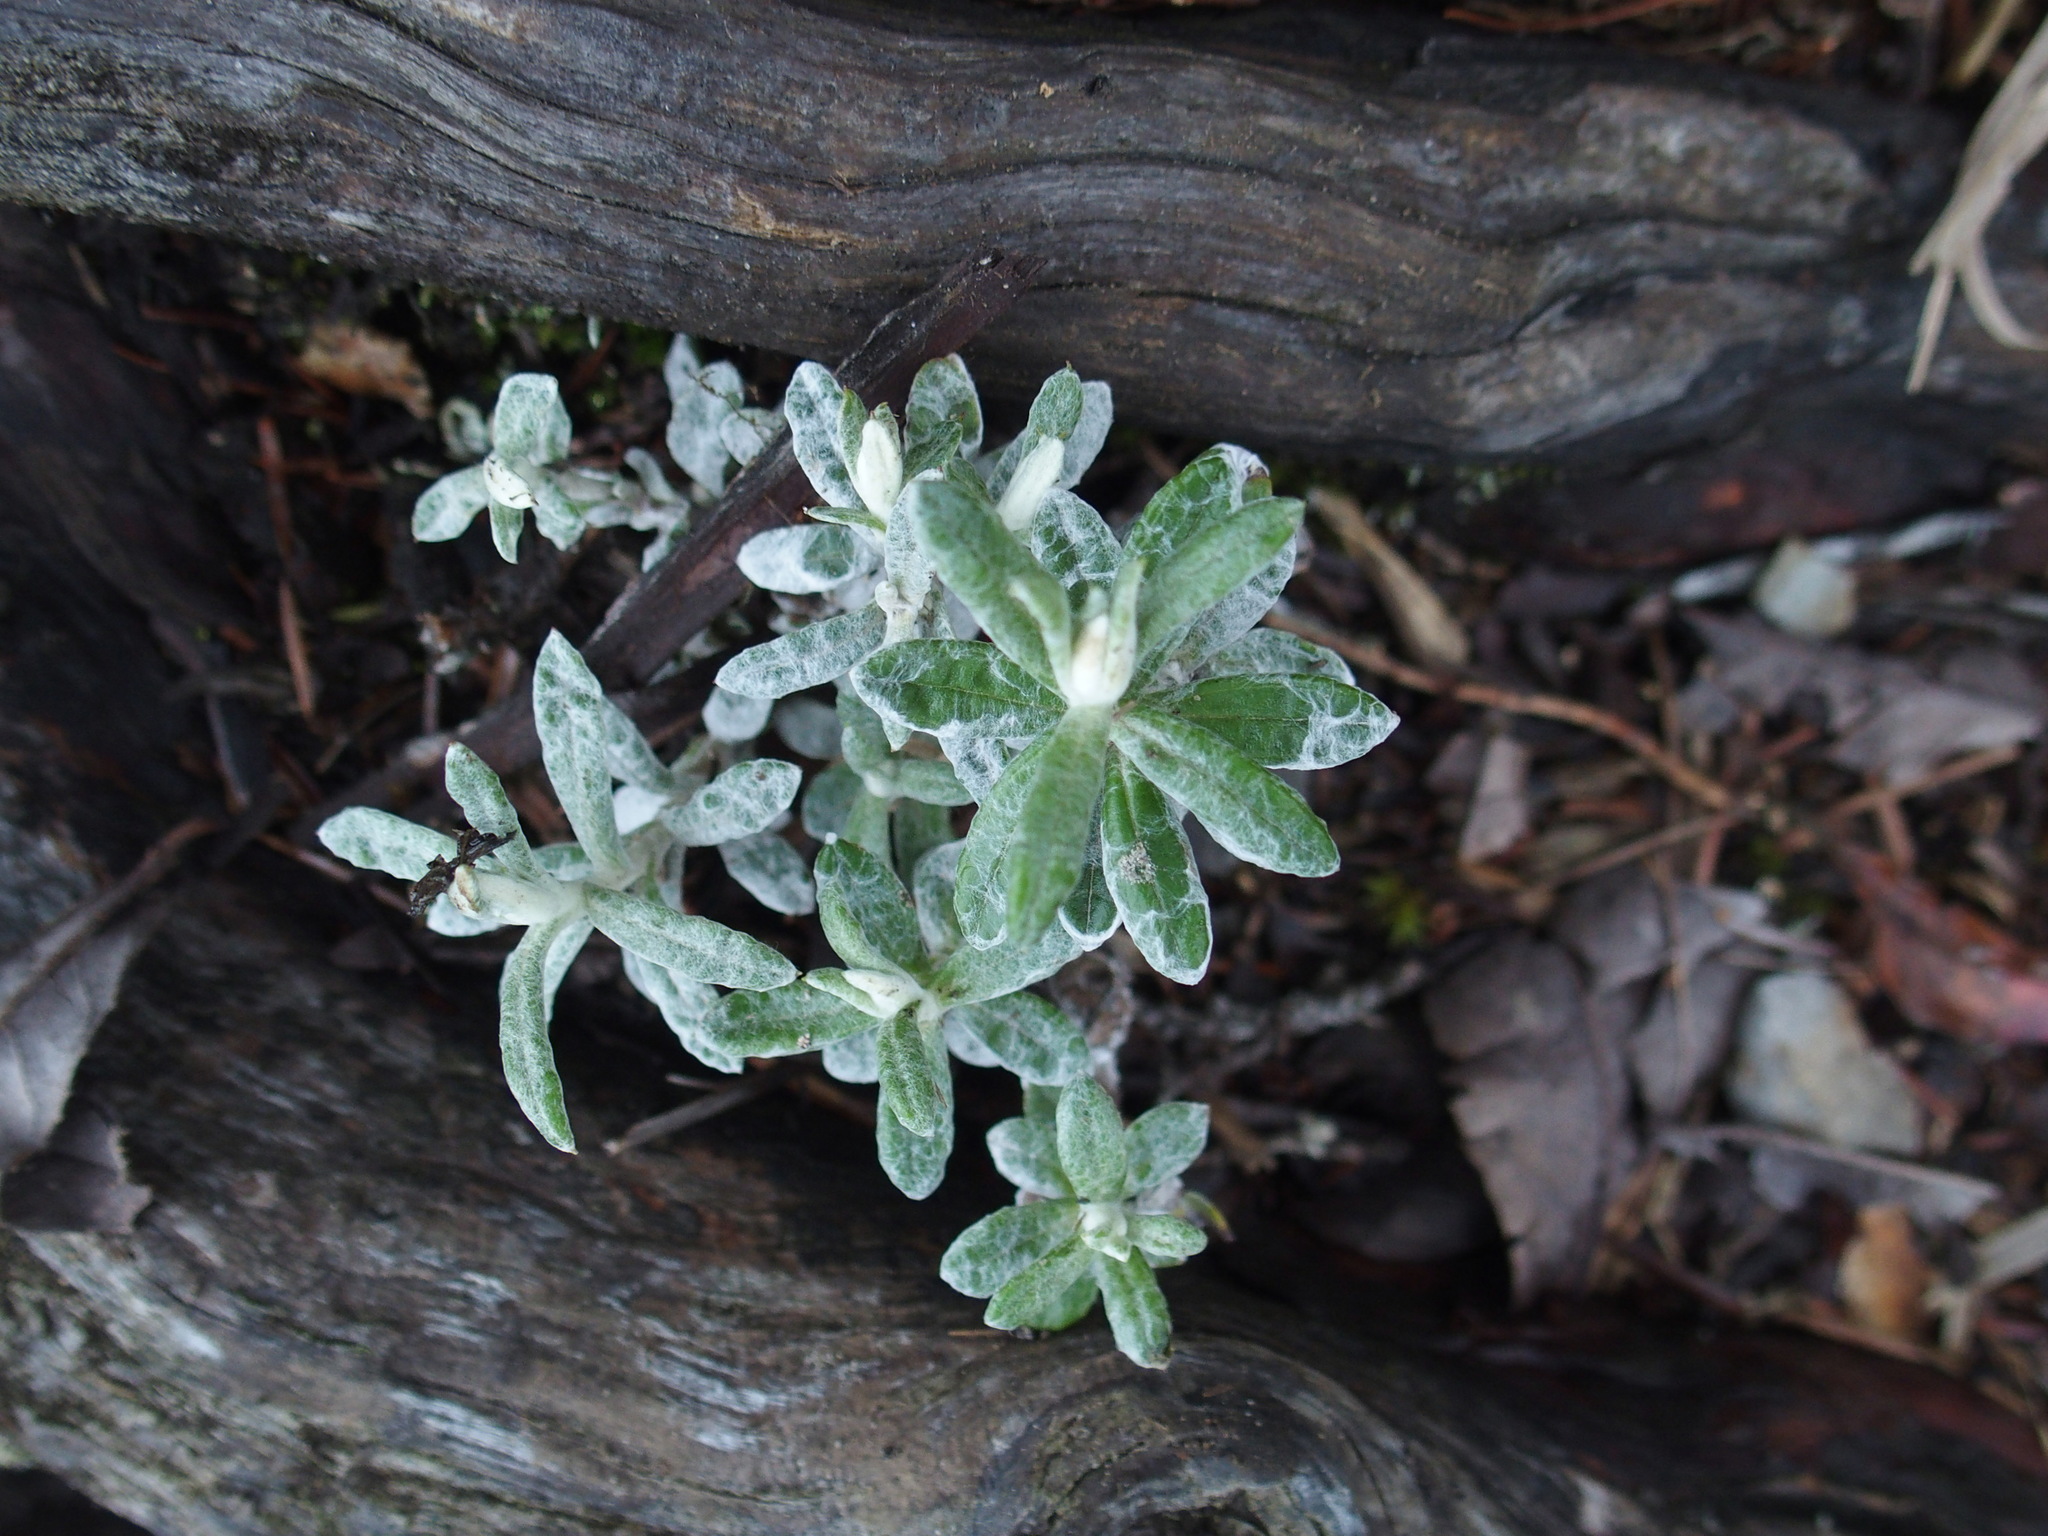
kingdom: Plantae
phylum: Tracheophyta
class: Magnoliopsida
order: Asterales
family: Asteraceae
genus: Anaphalis
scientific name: Anaphalis morrisonicola
